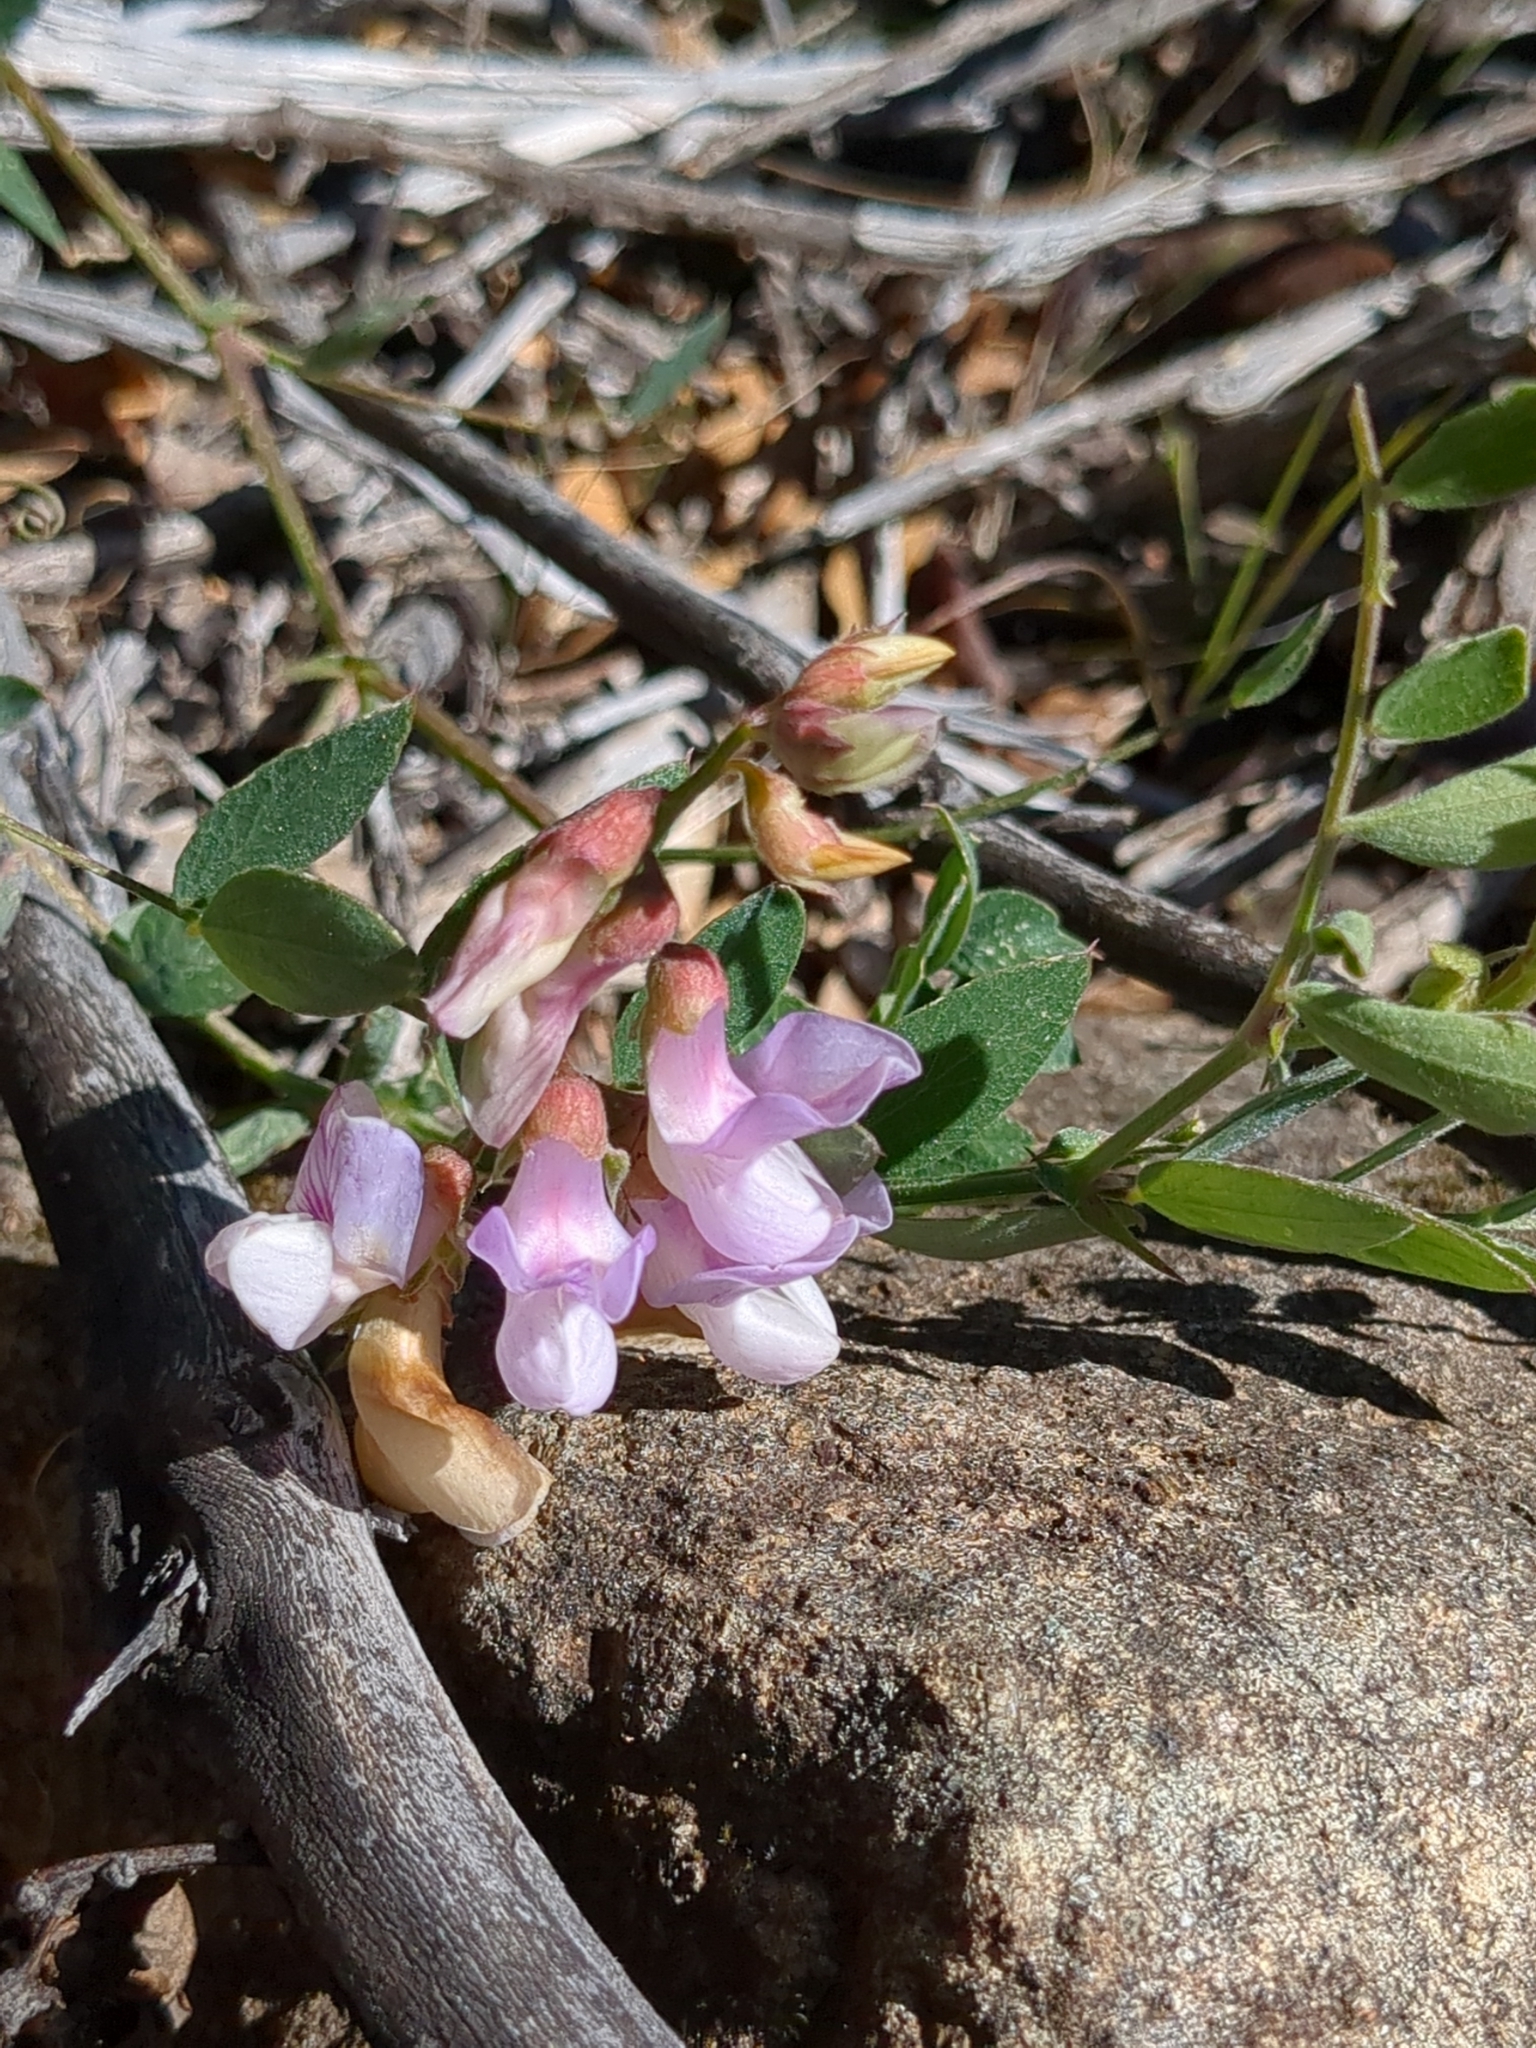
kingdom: Plantae
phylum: Tracheophyta
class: Magnoliopsida
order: Fabales
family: Fabaceae
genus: Lathyrus
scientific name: Lathyrus vestitus
